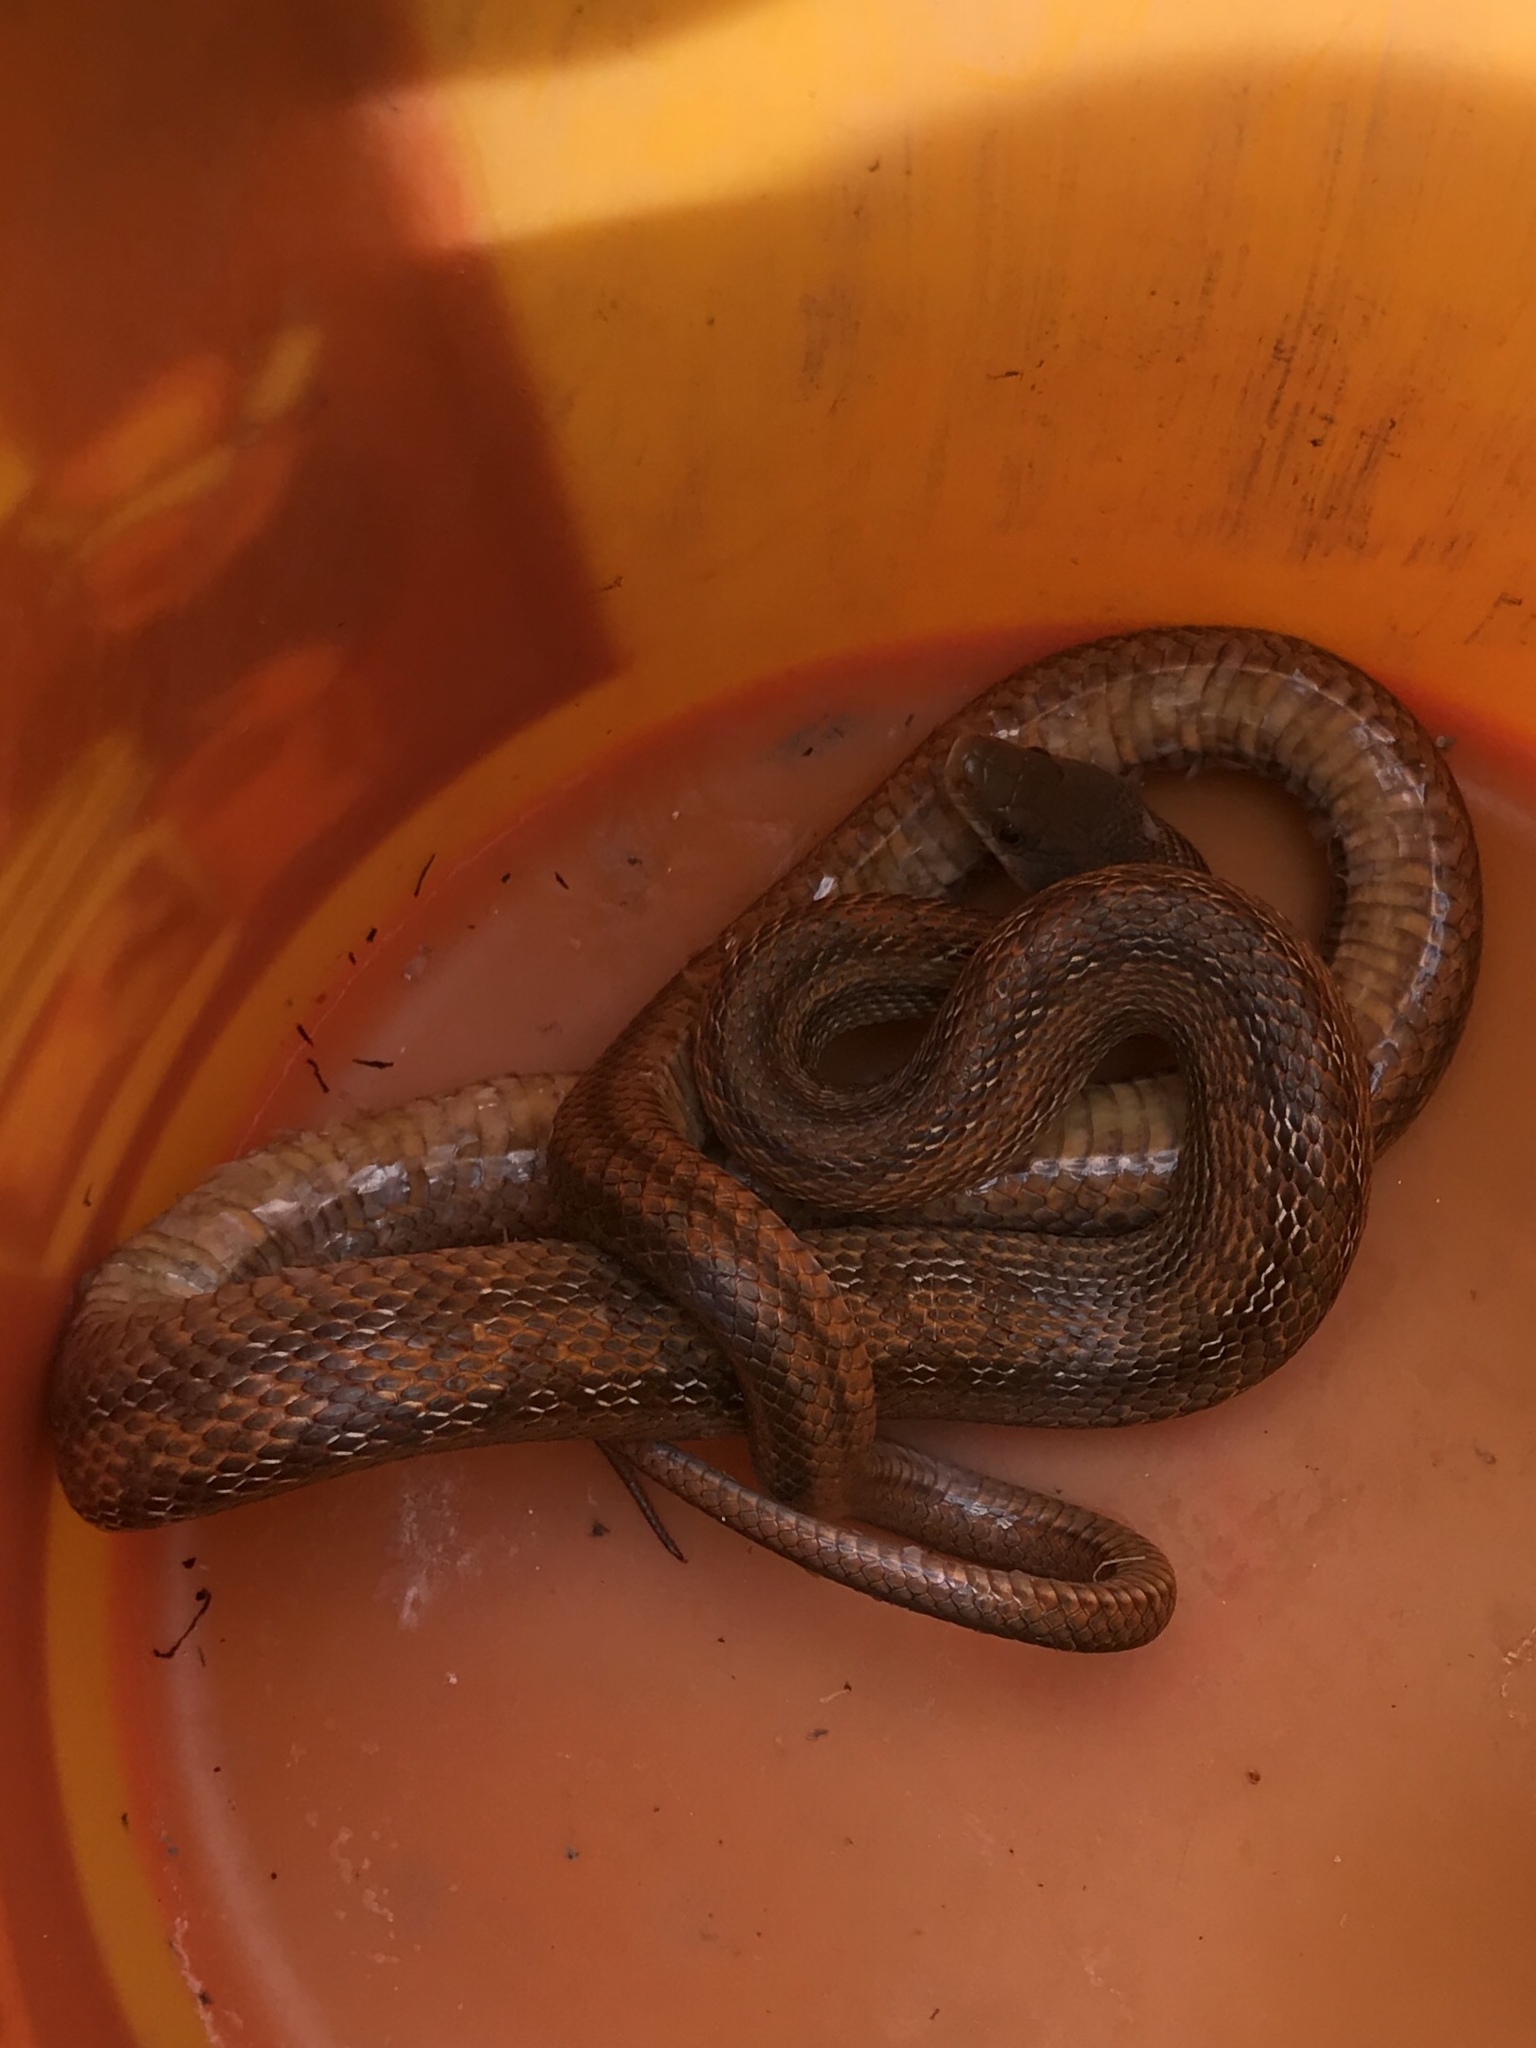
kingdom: Animalia
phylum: Chordata
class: Squamata
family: Colubridae
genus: Pantherophis
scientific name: Pantherophis bairdi
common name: Baird's rat snake
